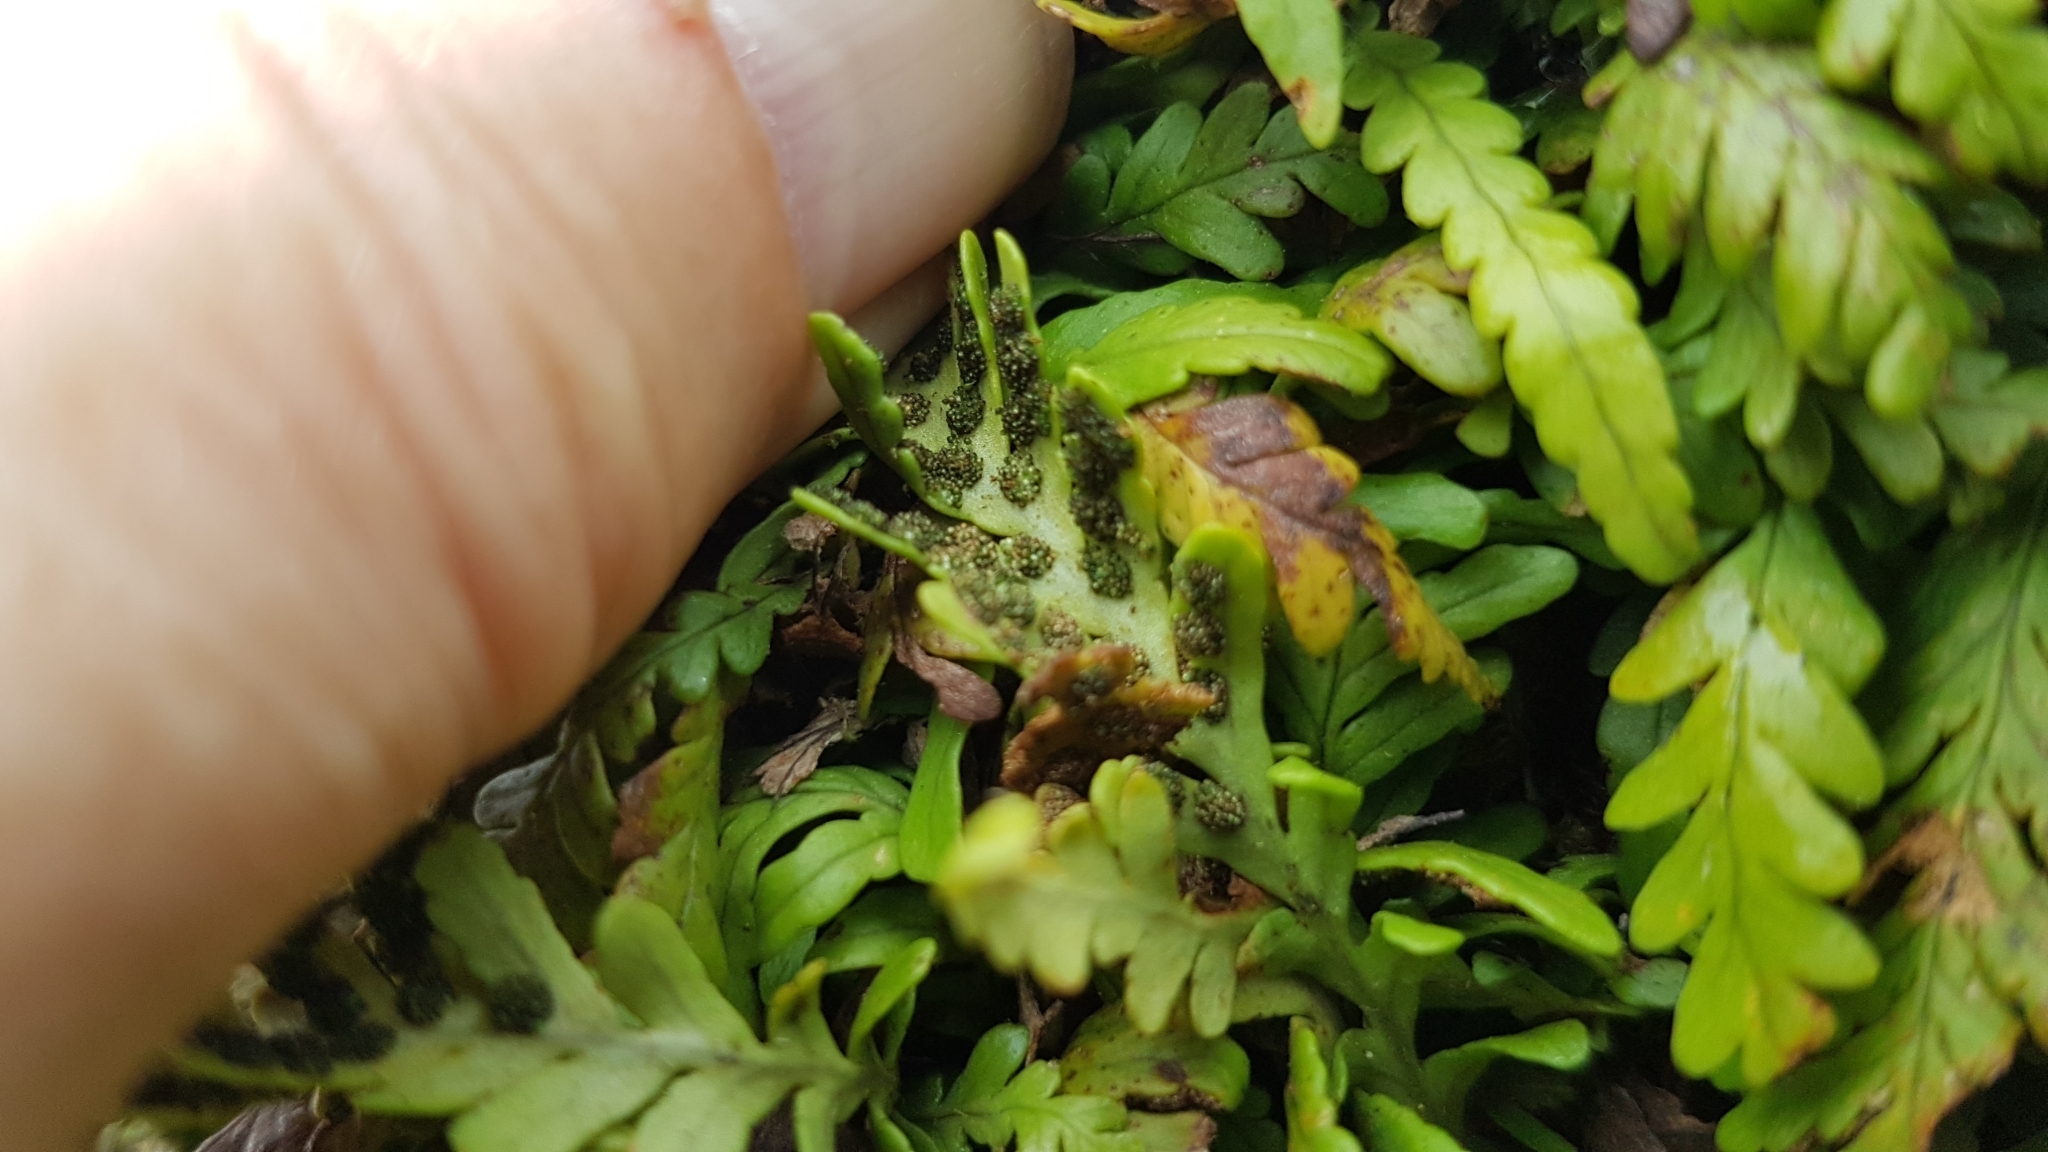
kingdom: Plantae
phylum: Tracheophyta
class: Polypodiopsida
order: Polypodiales
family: Polypodiaceae
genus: Notogrammitis
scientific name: Notogrammitis heterophylla
